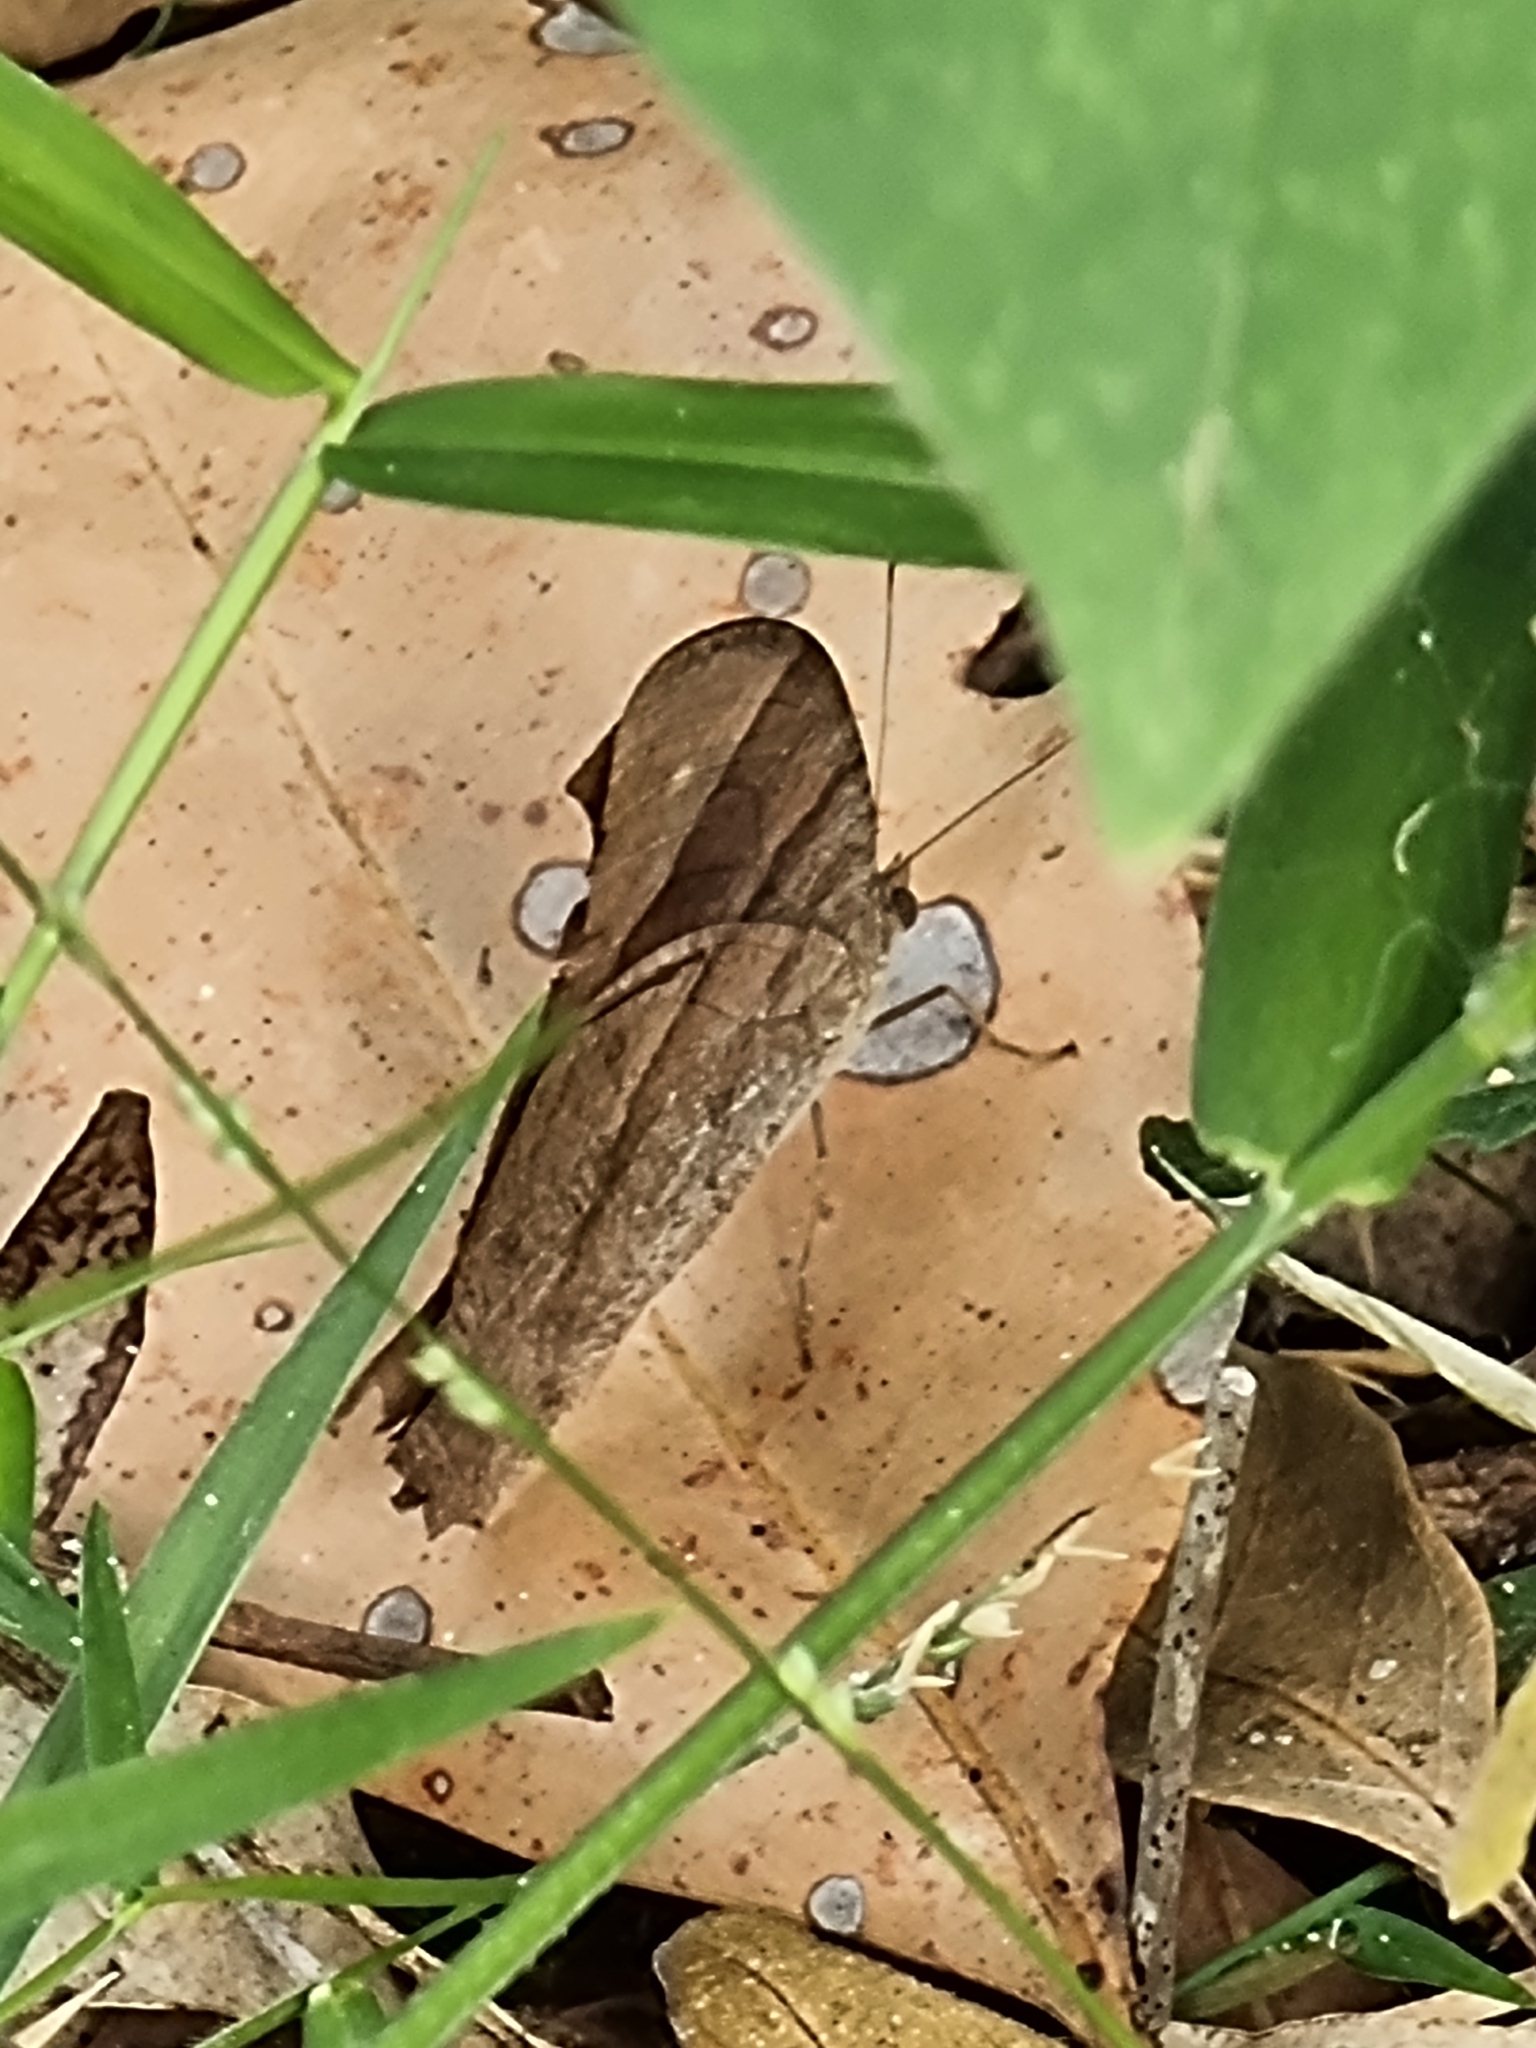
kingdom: Animalia
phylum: Arthropoda
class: Insecta
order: Lepidoptera
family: Nymphalidae
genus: Melanitis
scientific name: Melanitis leda
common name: Twilight brown
